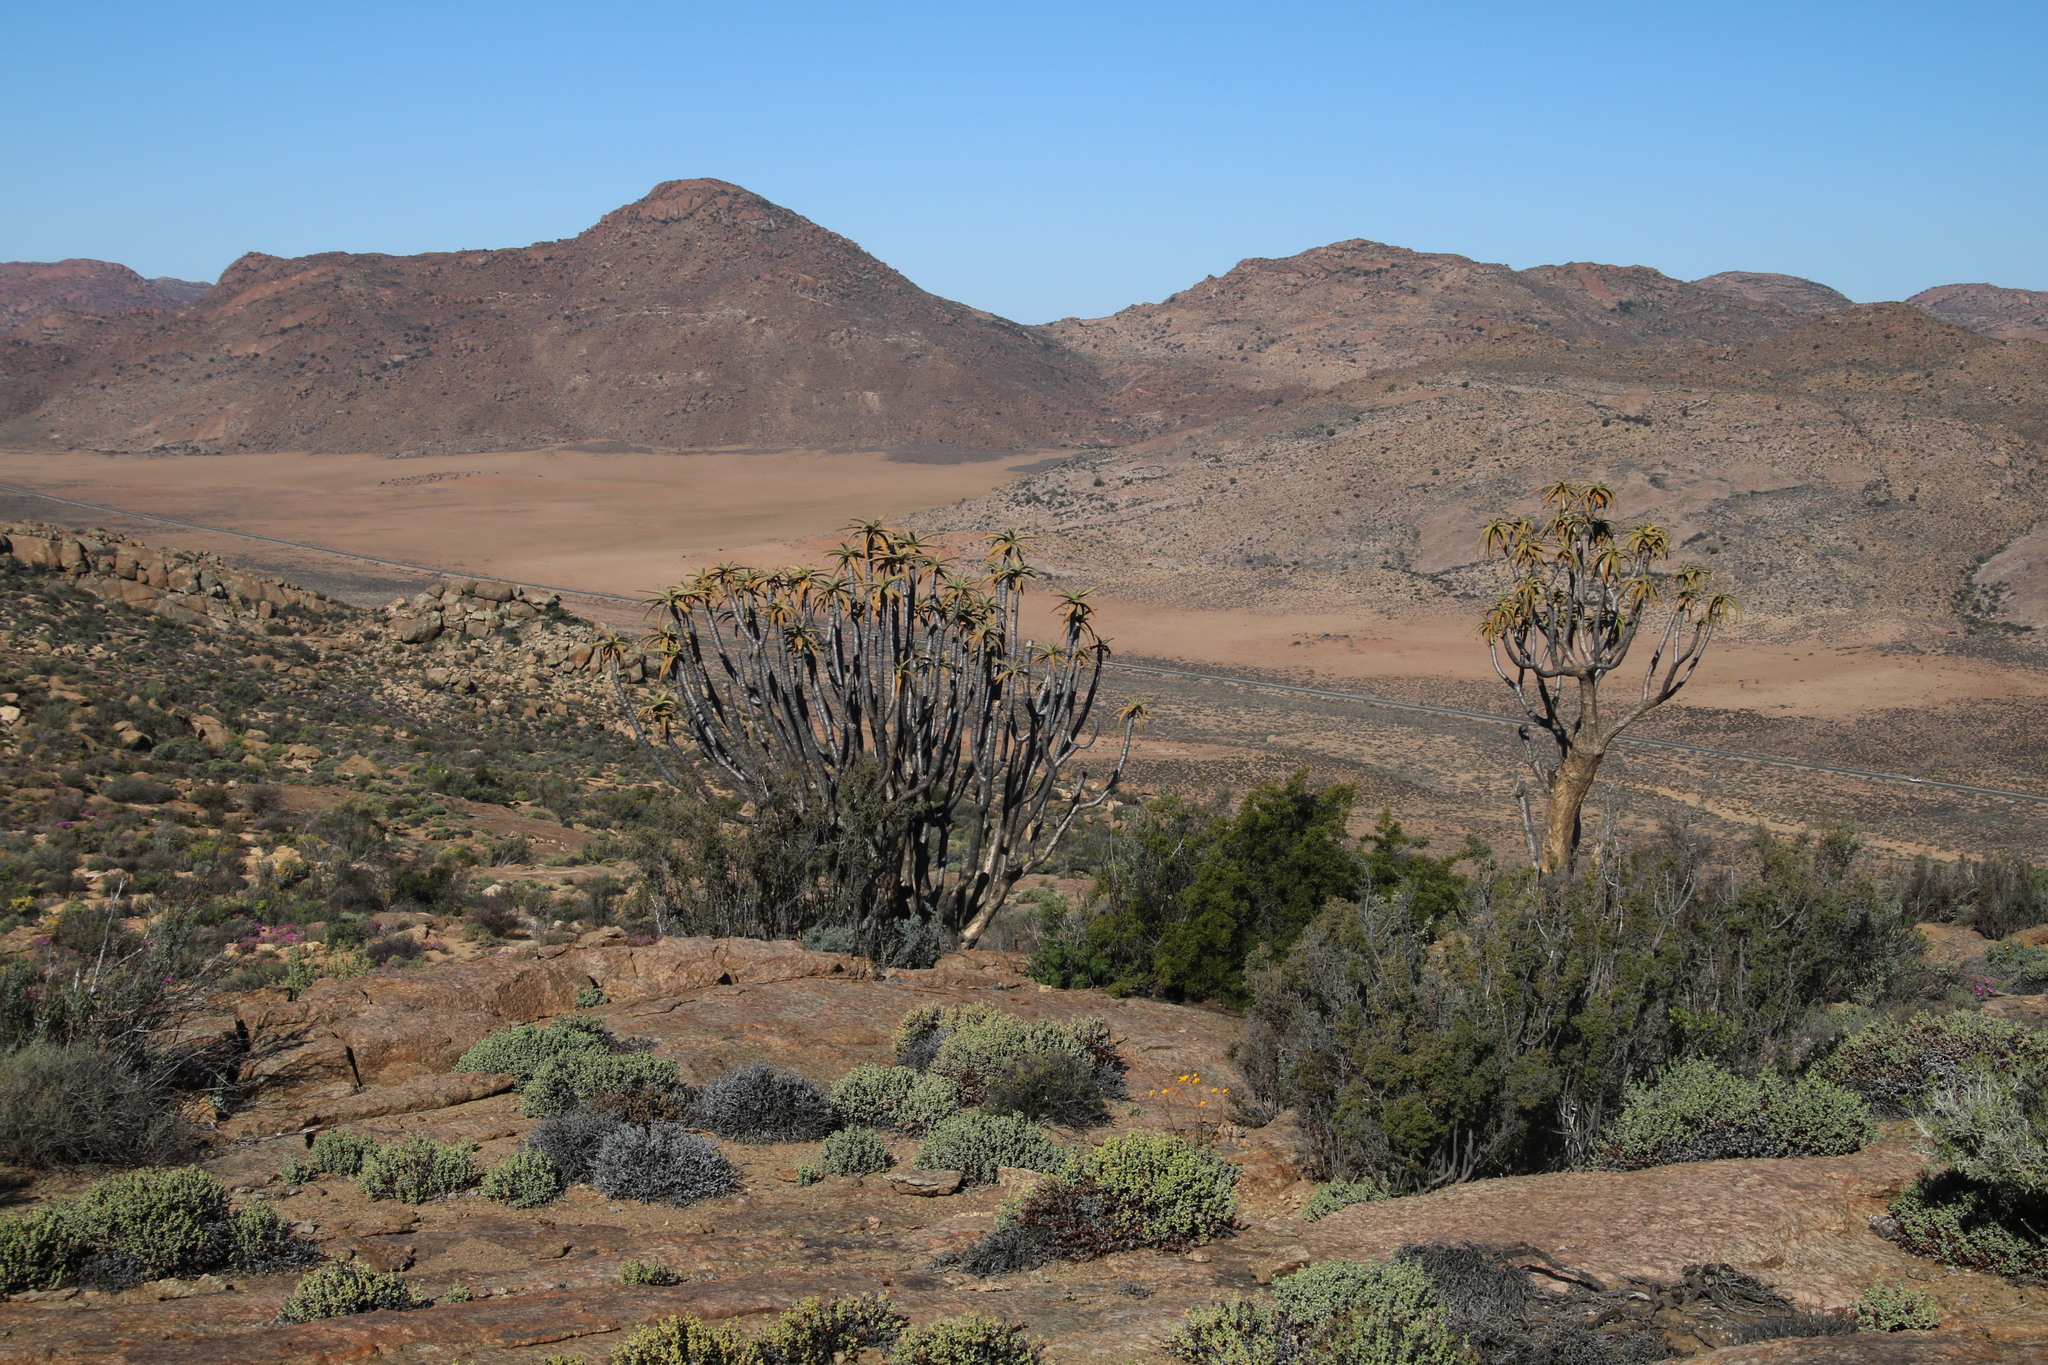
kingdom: Plantae
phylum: Tracheophyta
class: Liliopsida
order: Asparagales
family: Asphodelaceae
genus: Aloidendron
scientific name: Aloidendron dichotomum
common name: Quiver tree
